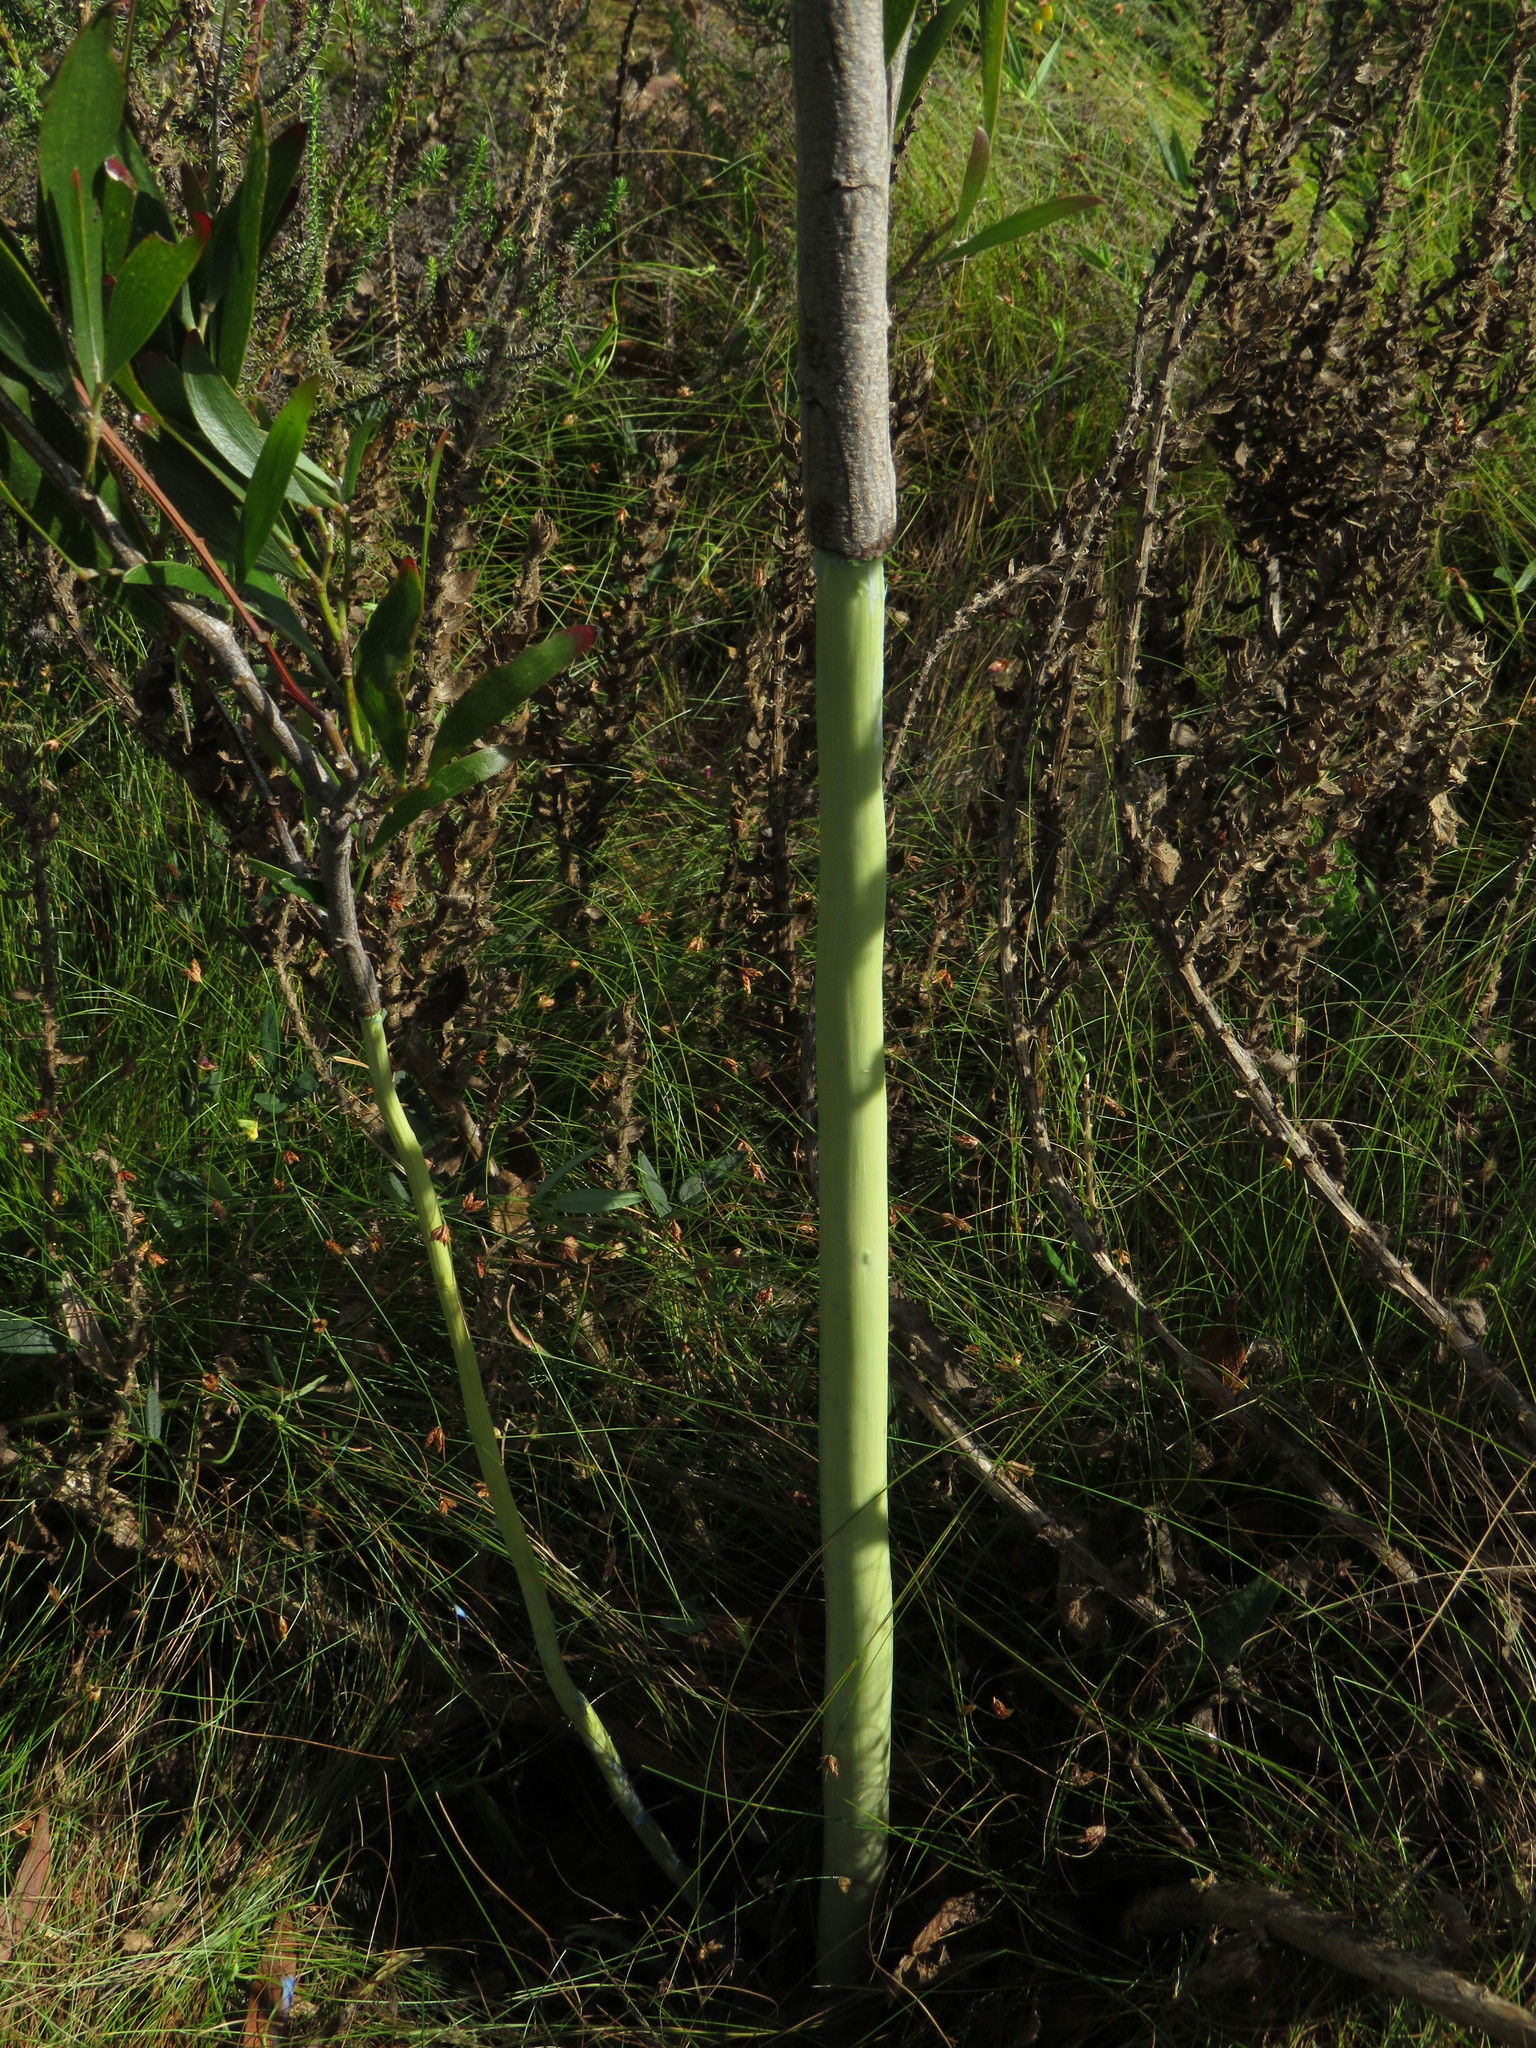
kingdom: Plantae
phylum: Tracheophyta
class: Magnoliopsida
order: Fabales
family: Fabaceae
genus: Acacia
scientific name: Acacia melanoxylon
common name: Blackwood
